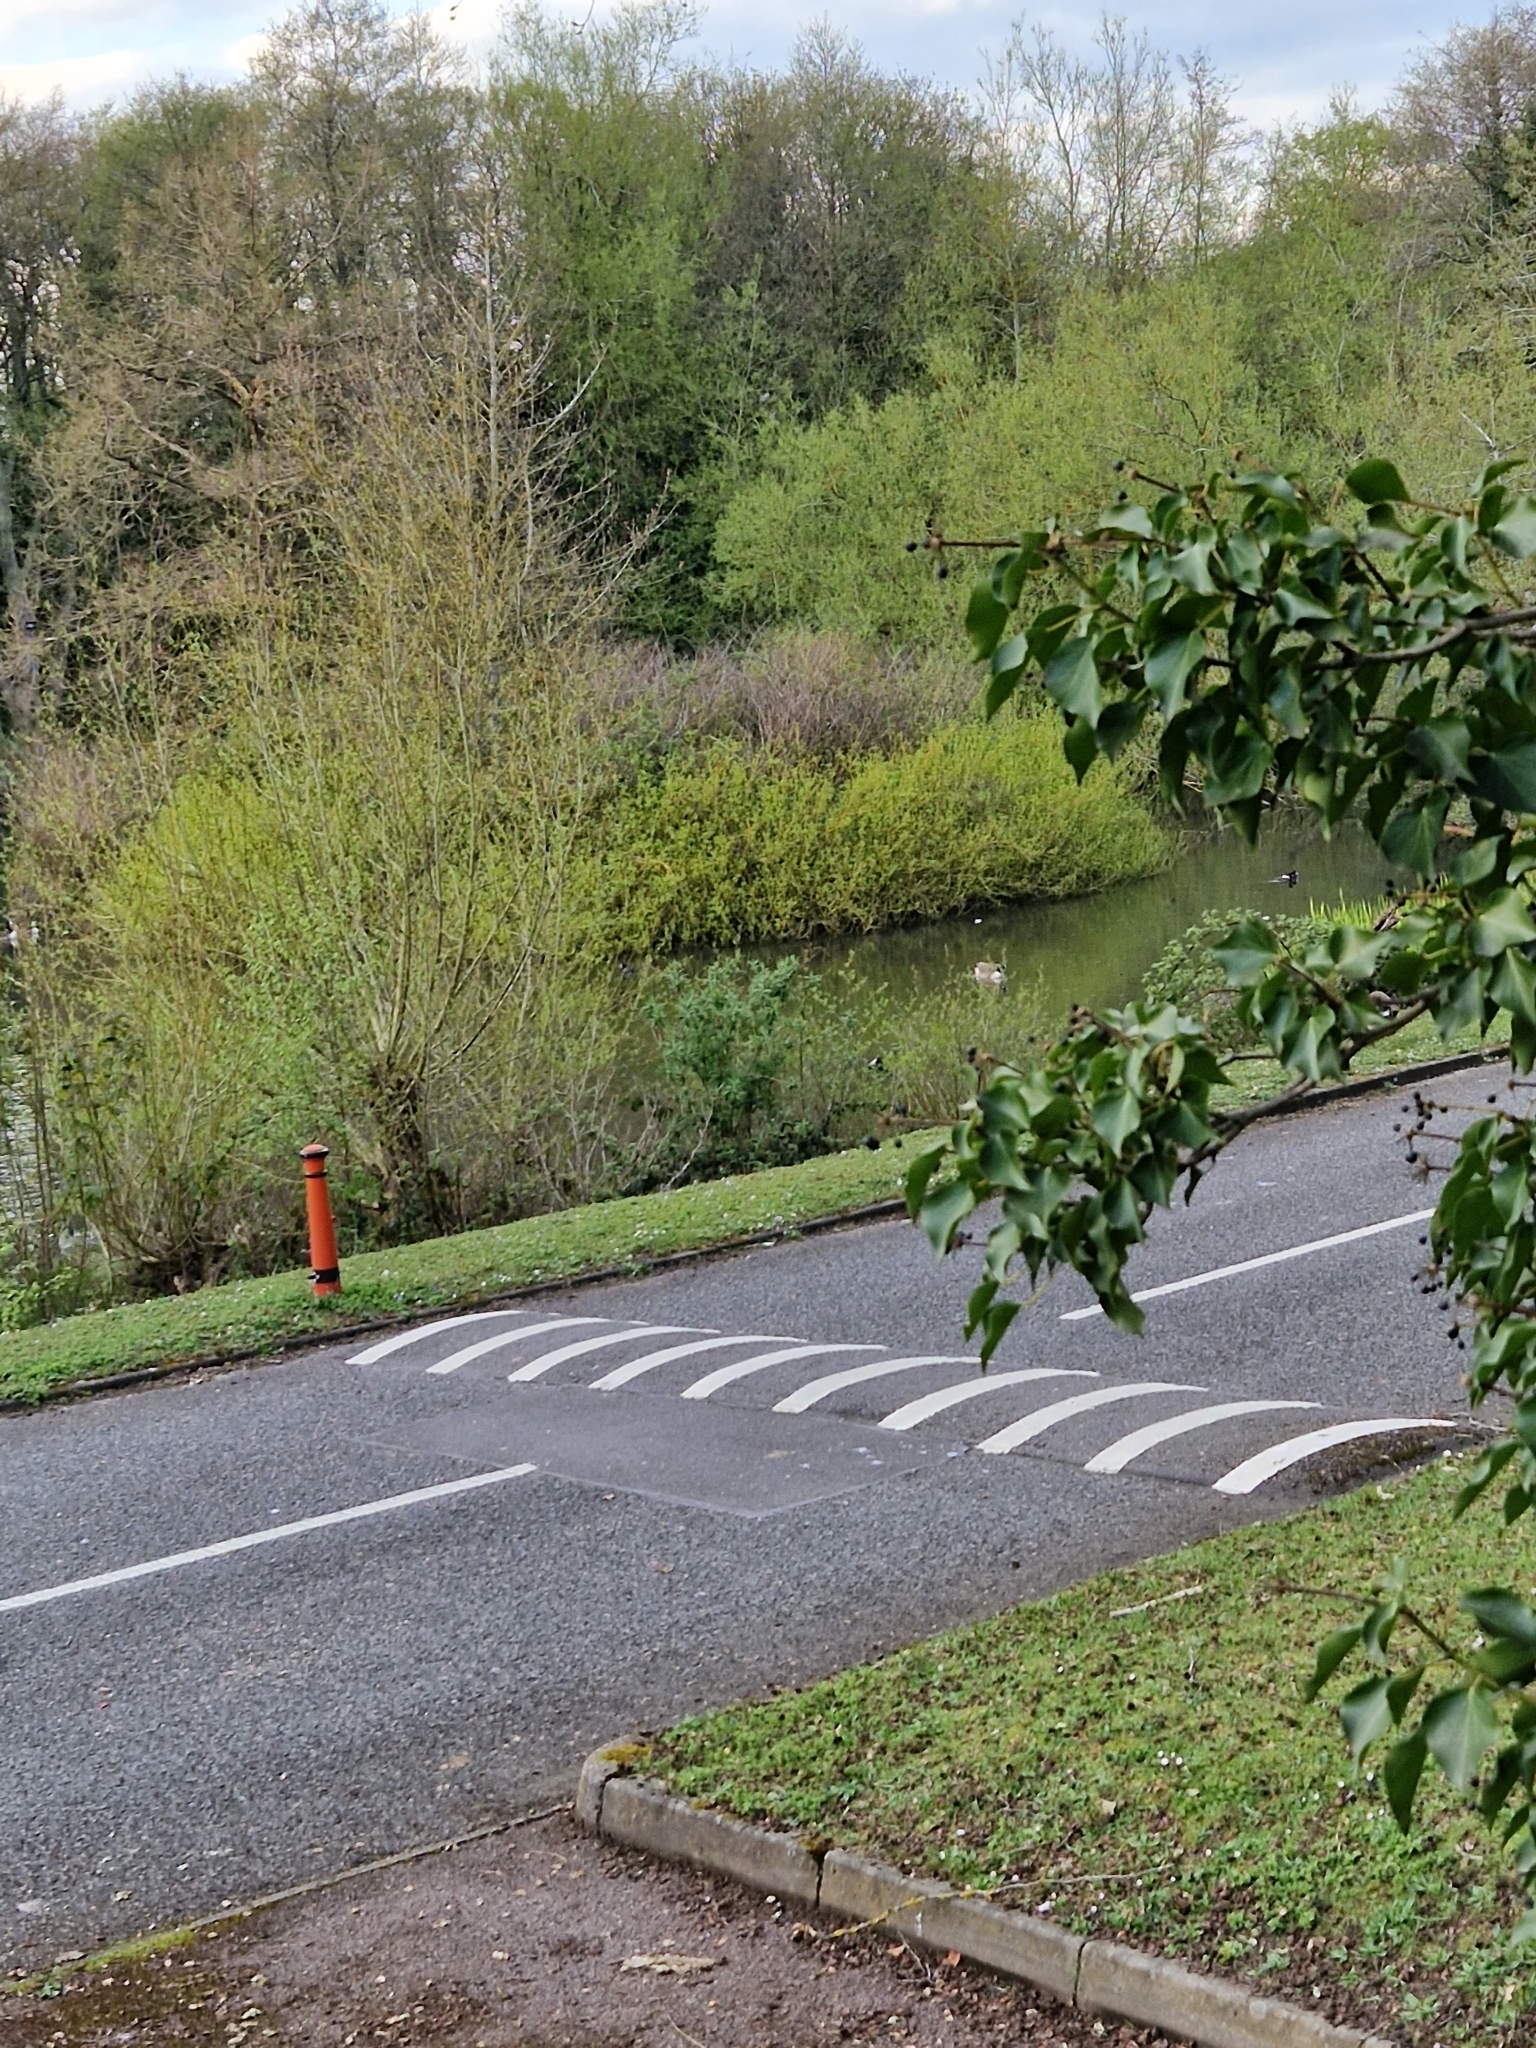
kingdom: Animalia
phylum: Chordata
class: Aves
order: Anseriformes
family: Anatidae
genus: Aythya
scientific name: Aythya fuligula
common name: Tufted duck
